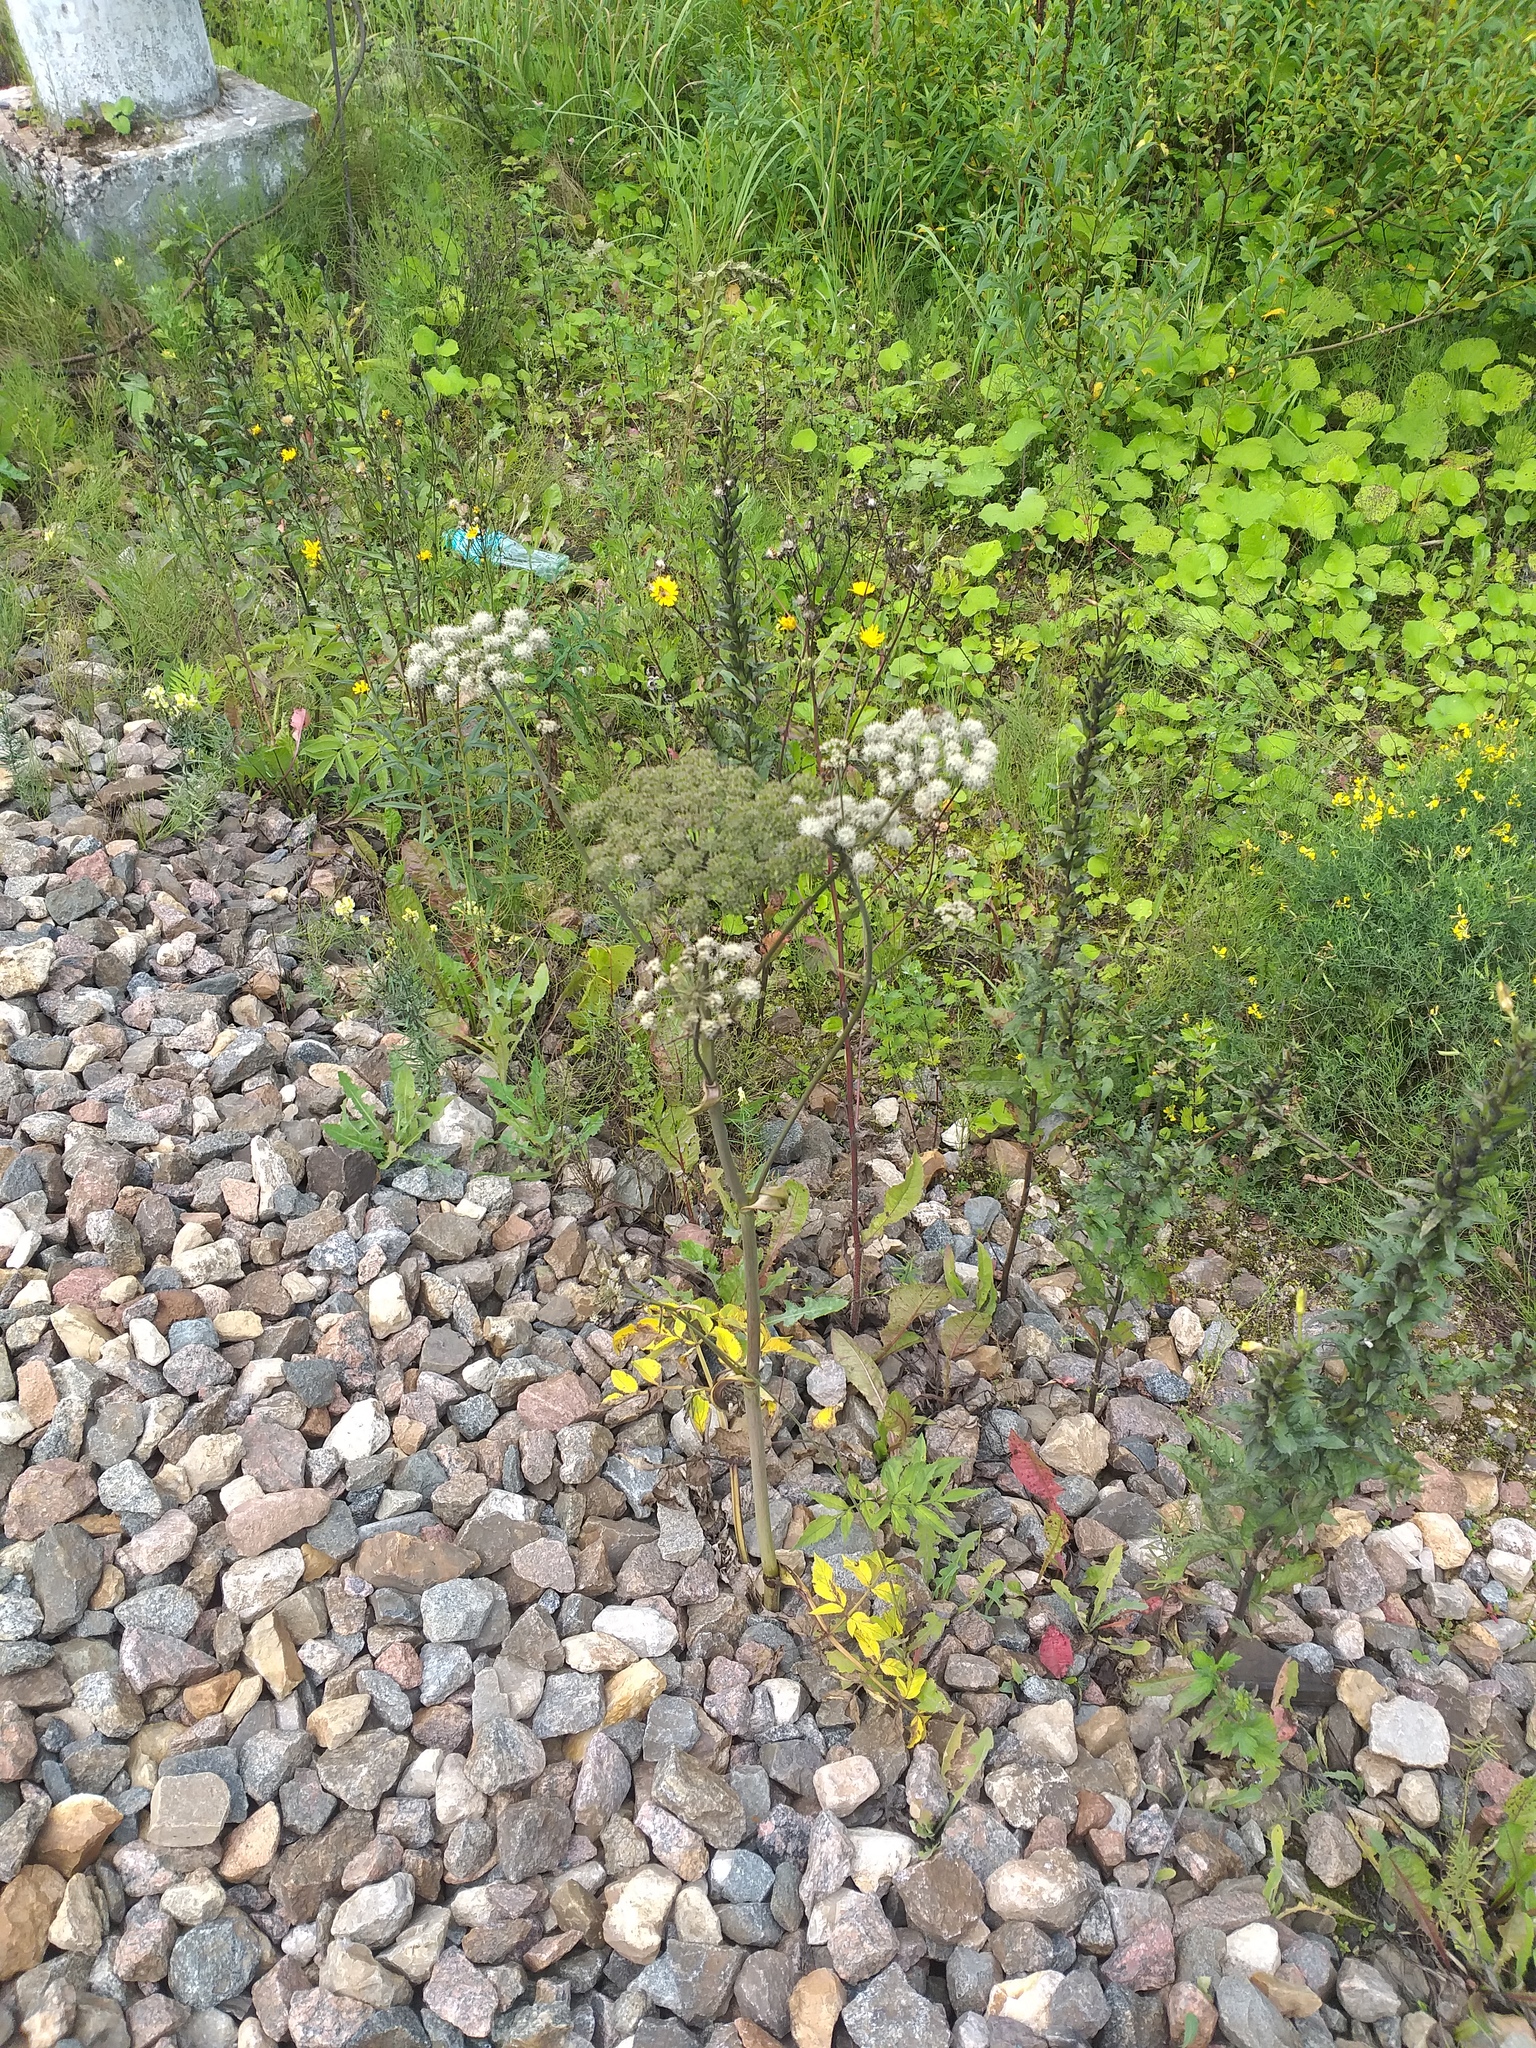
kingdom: Plantae
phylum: Tracheophyta
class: Magnoliopsida
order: Apiales
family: Apiaceae
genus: Angelica
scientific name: Angelica sylvestris
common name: Wild angelica
